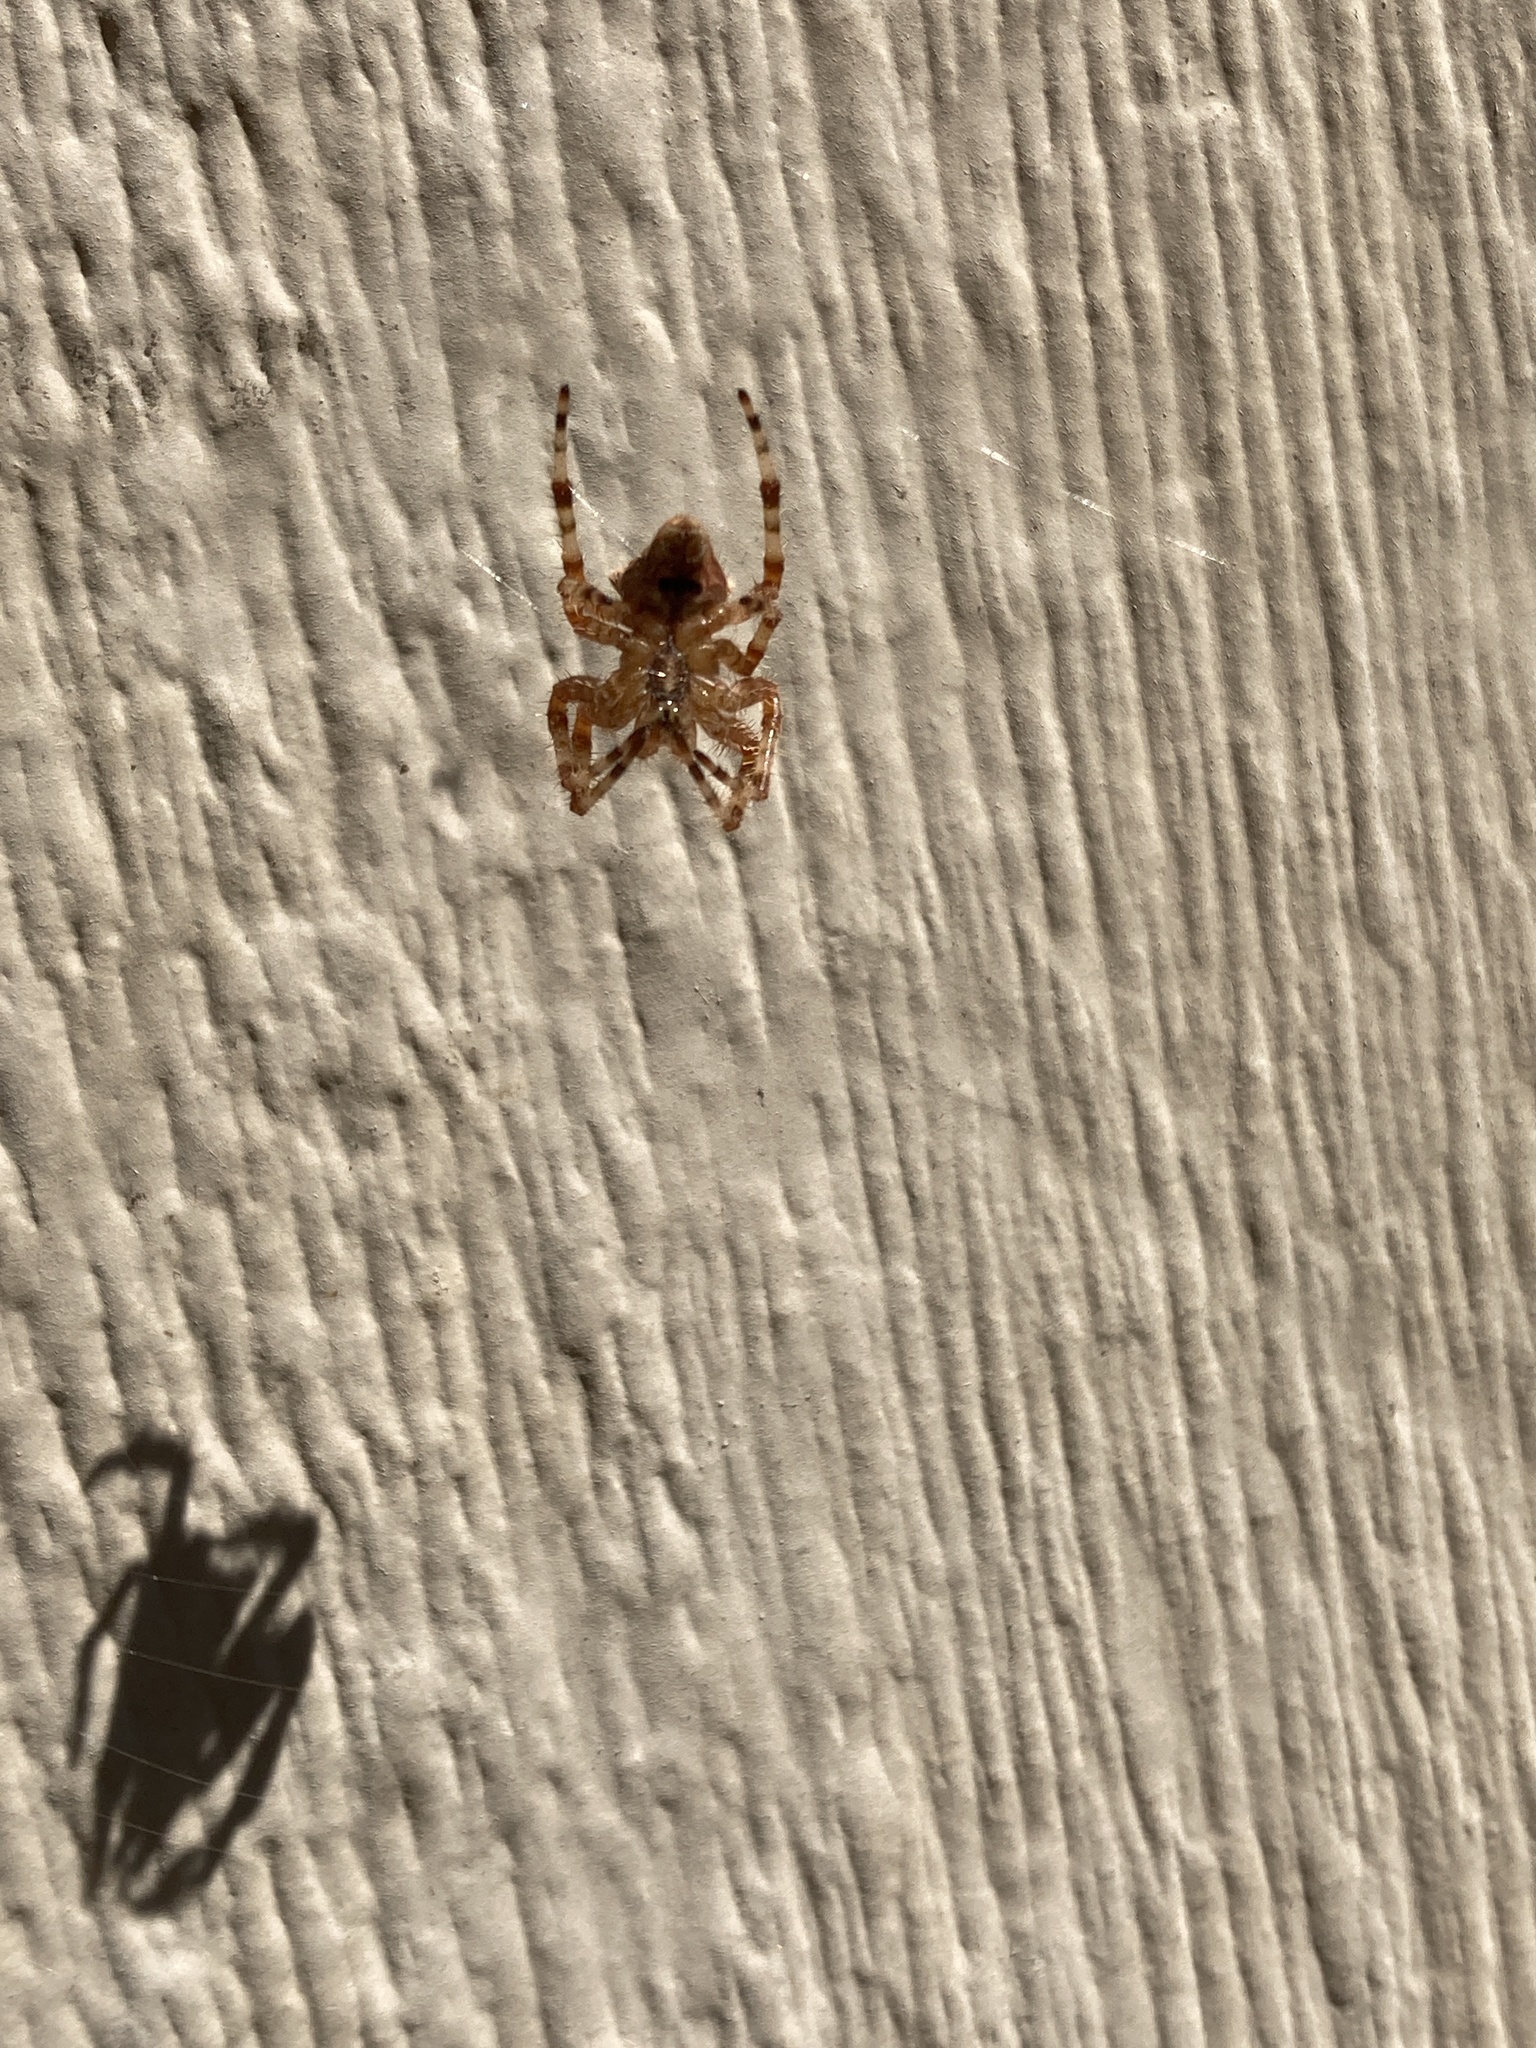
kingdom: Animalia
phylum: Arthropoda
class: Arachnida
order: Araneae
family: Araneidae
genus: Araneus
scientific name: Araneus gemmoides
